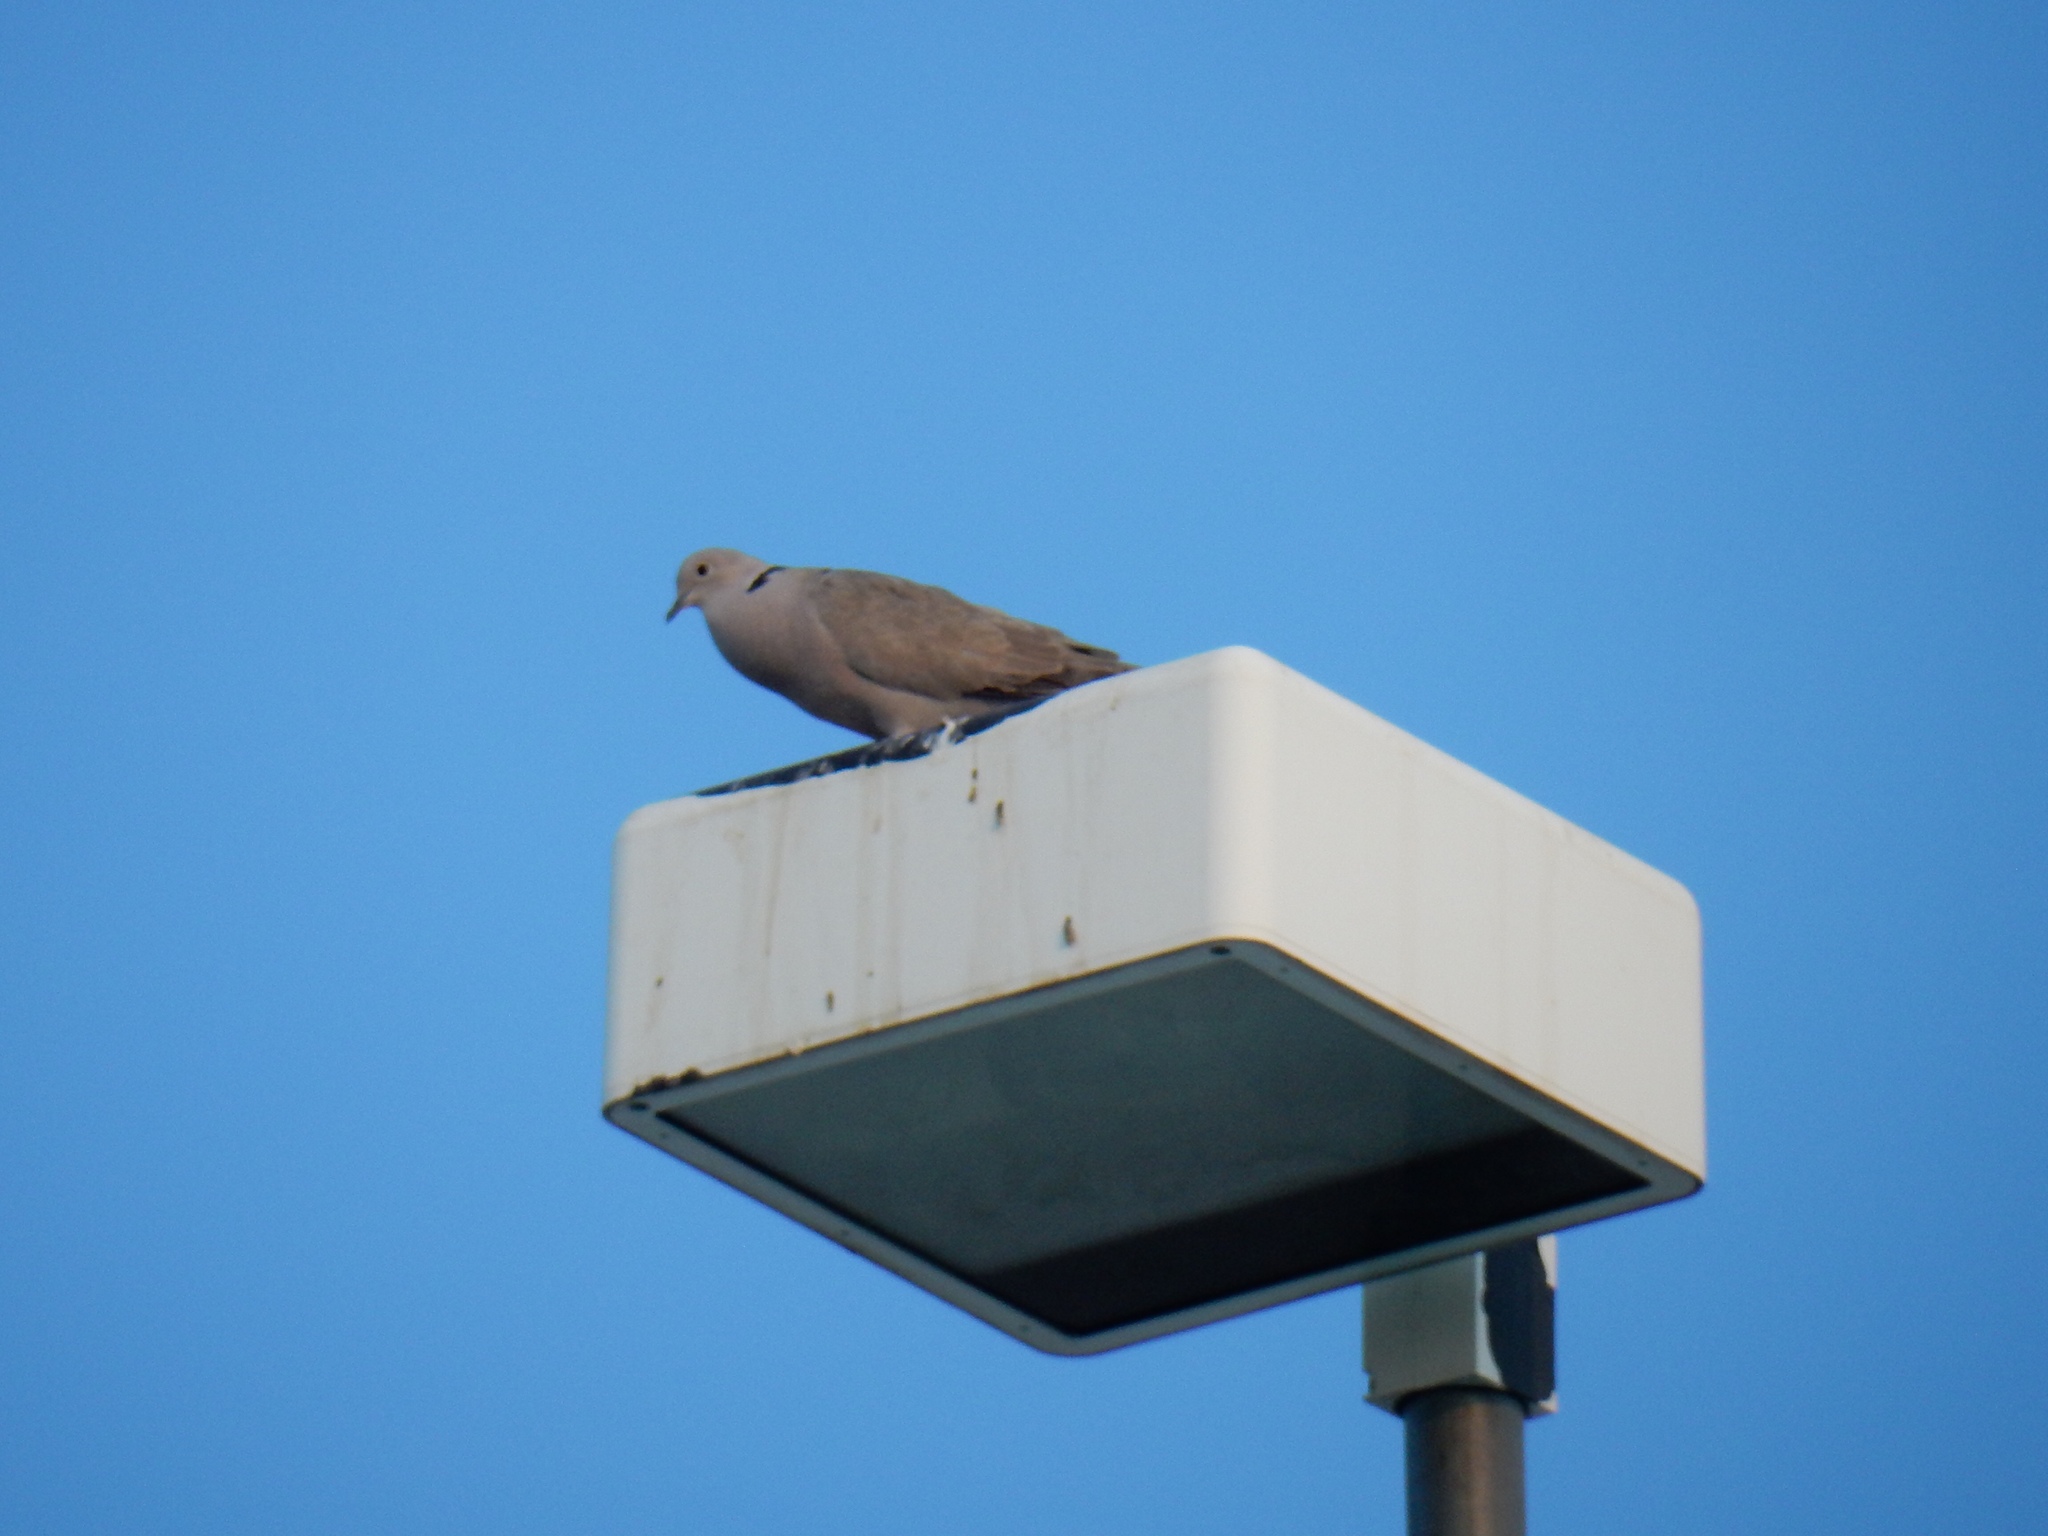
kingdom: Animalia
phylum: Chordata
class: Aves
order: Columbiformes
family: Columbidae
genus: Streptopelia
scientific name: Streptopelia decaocto
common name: Eurasian collared dove
